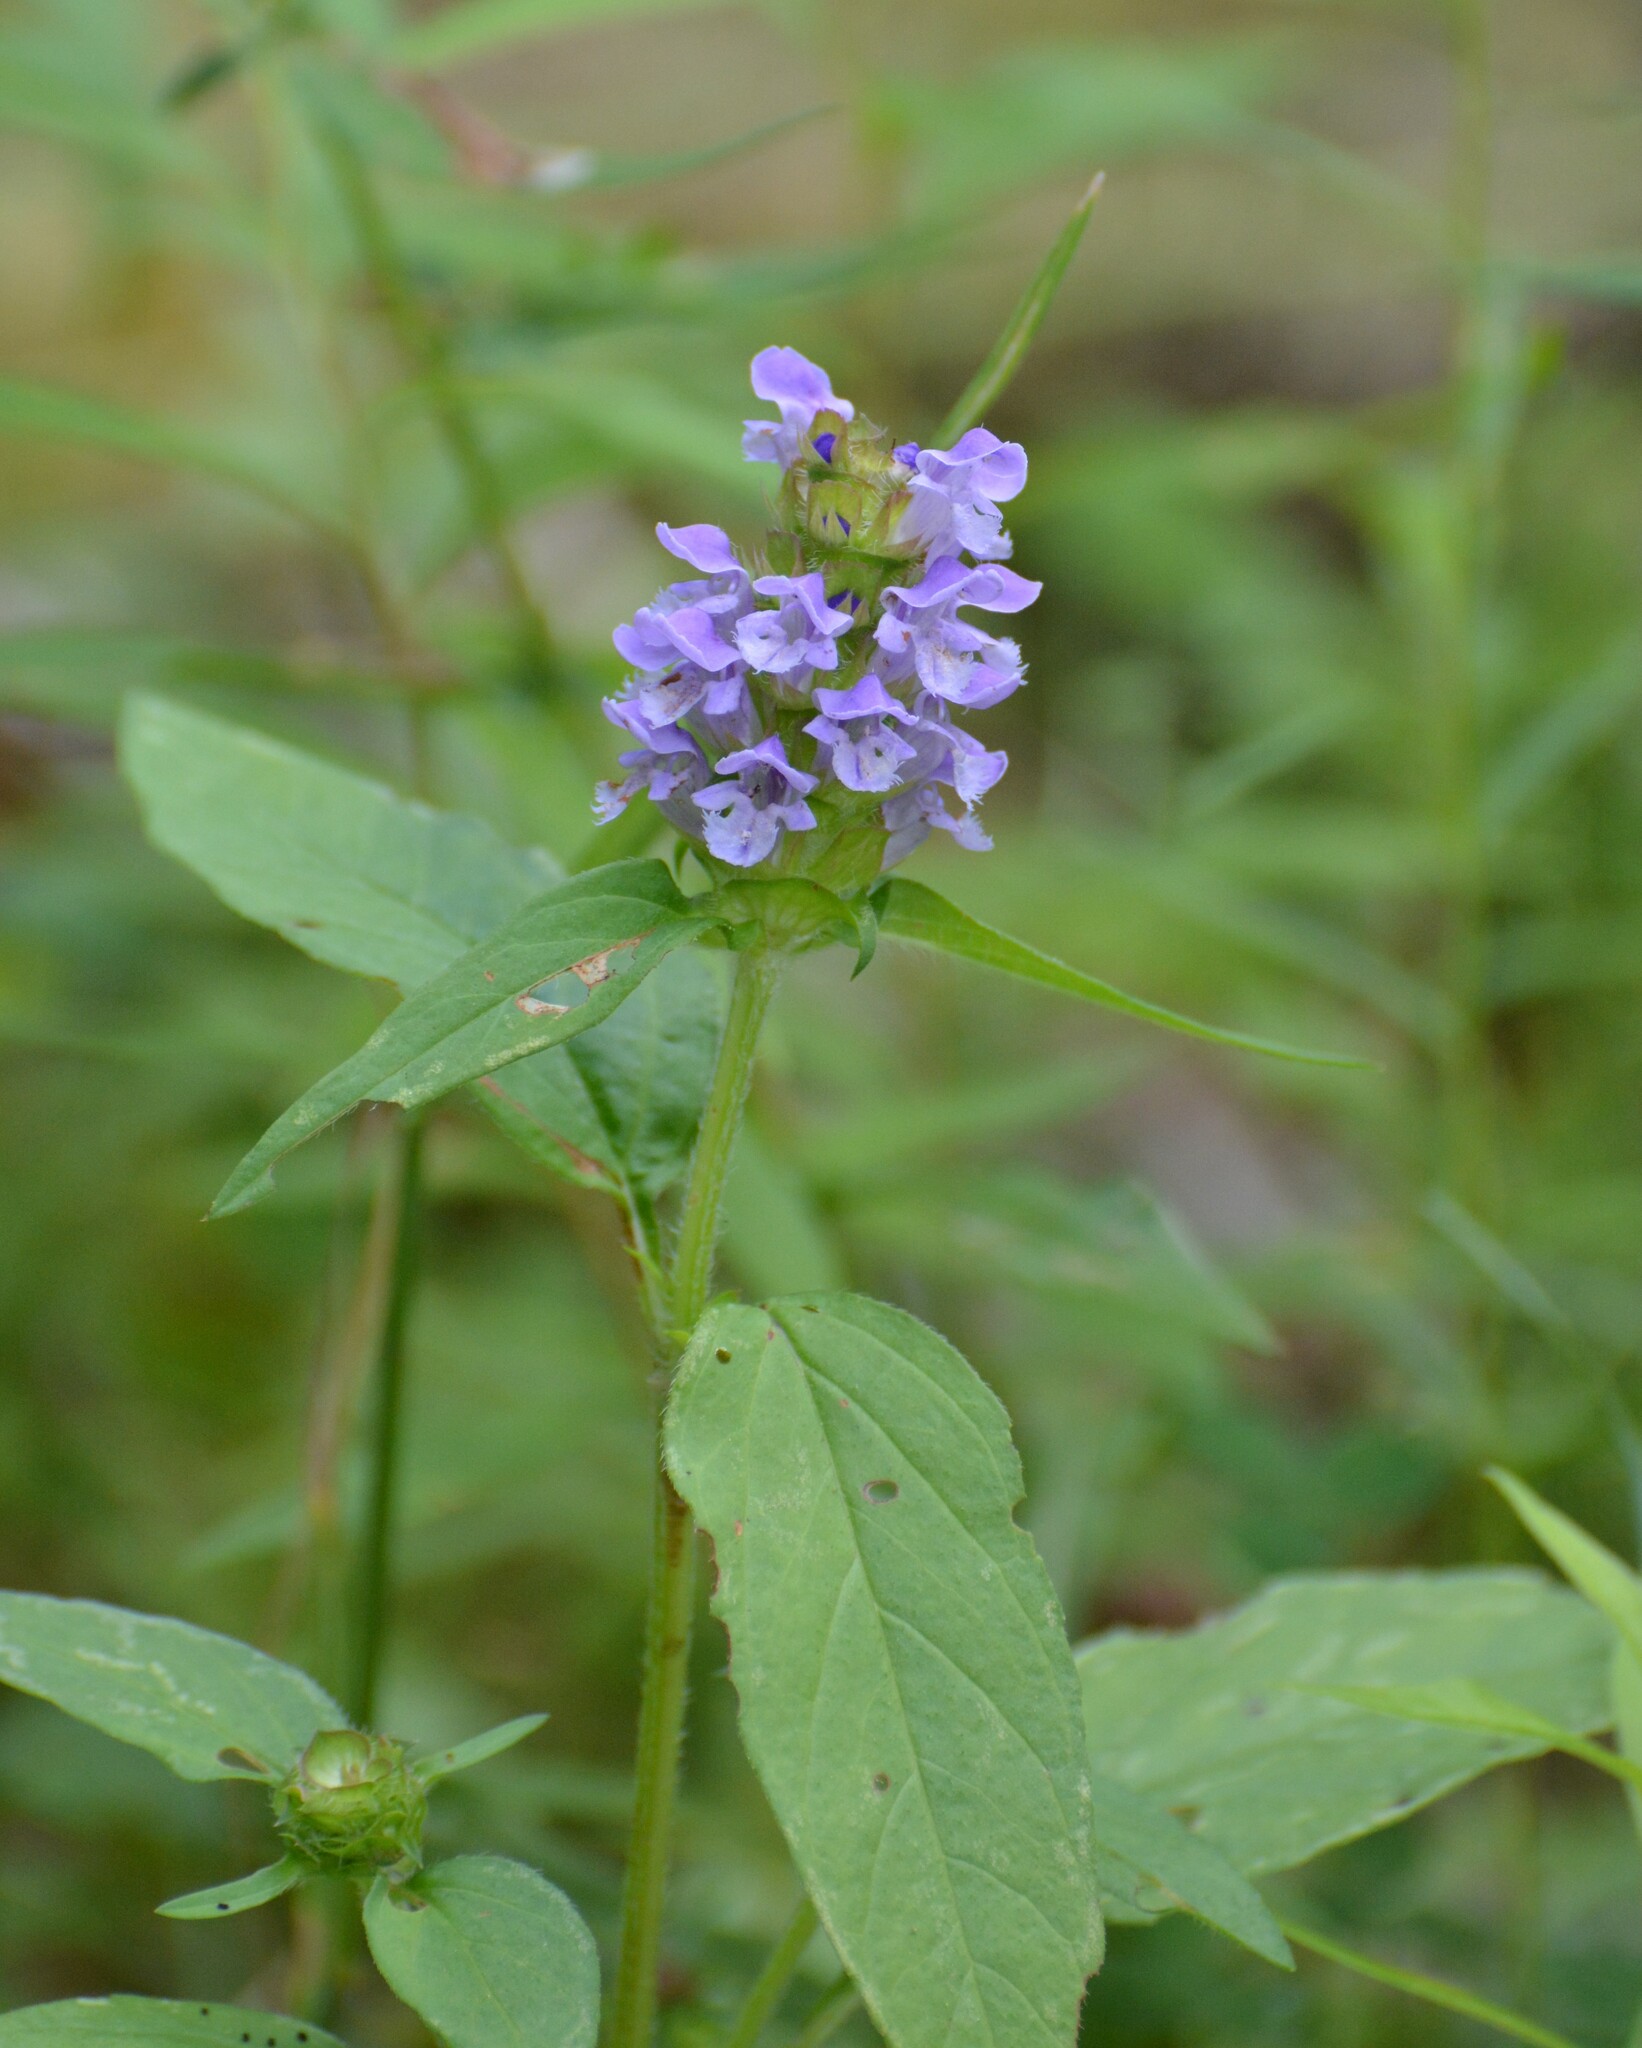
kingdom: Plantae
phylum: Tracheophyta
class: Magnoliopsida
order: Lamiales
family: Lamiaceae
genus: Prunella
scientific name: Prunella vulgaris
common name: Heal-all
